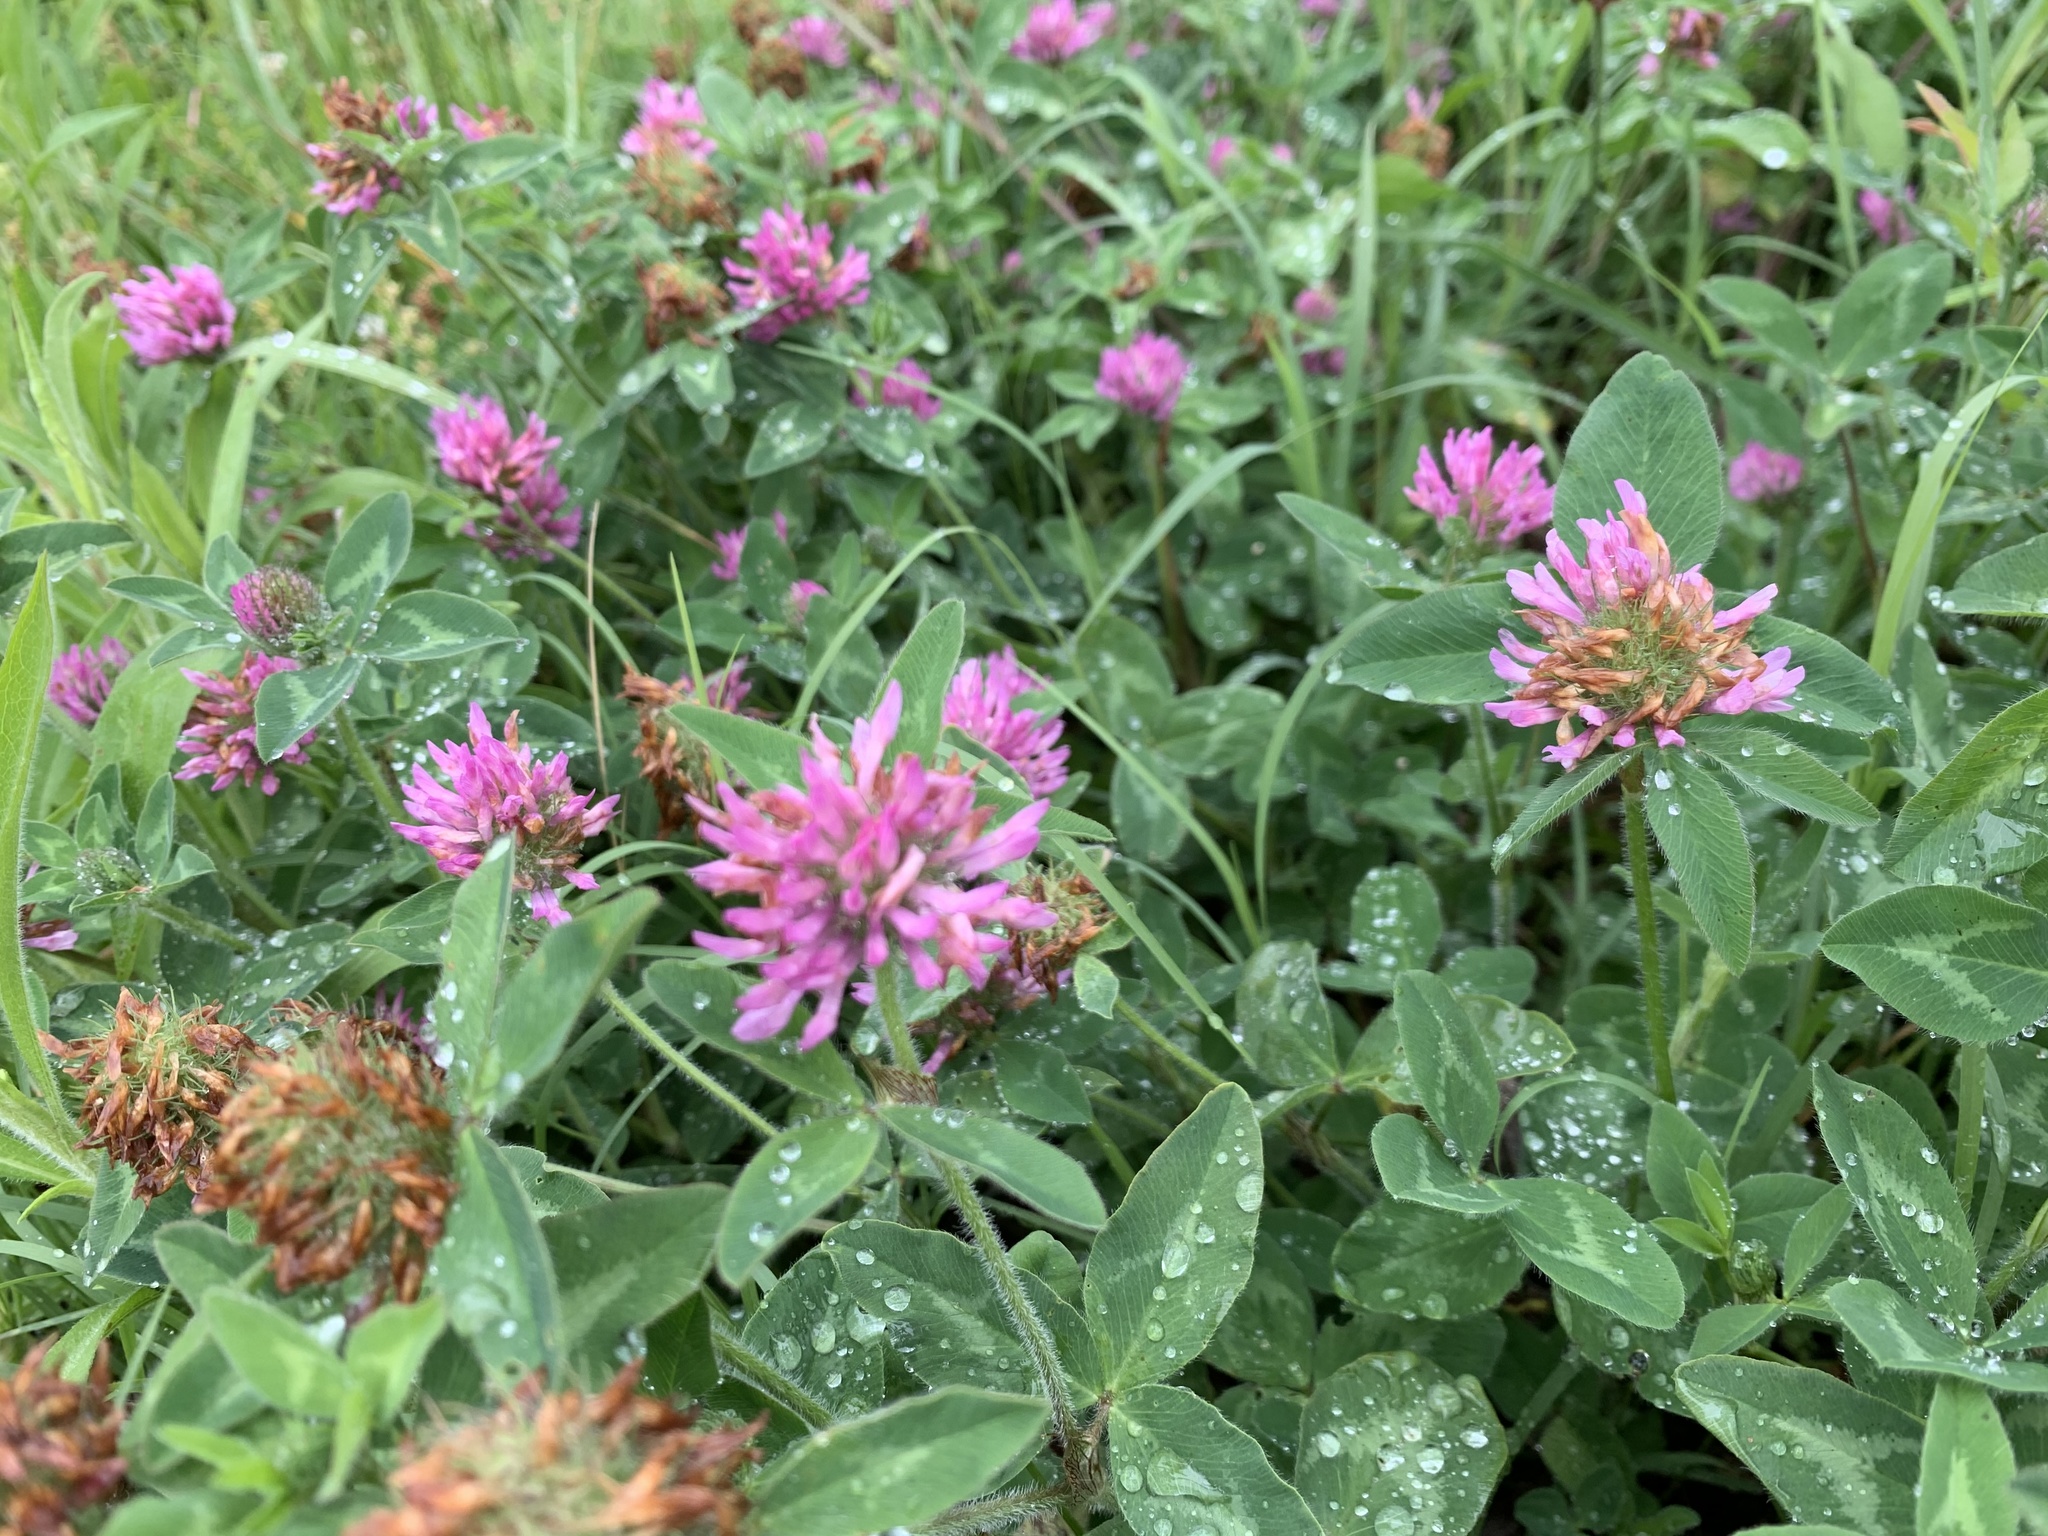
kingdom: Plantae
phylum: Tracheophyta
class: Magnoliopsida
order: Fabales
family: Fabaceae
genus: Trifolium
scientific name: Trifolium pratense
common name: Red clover
